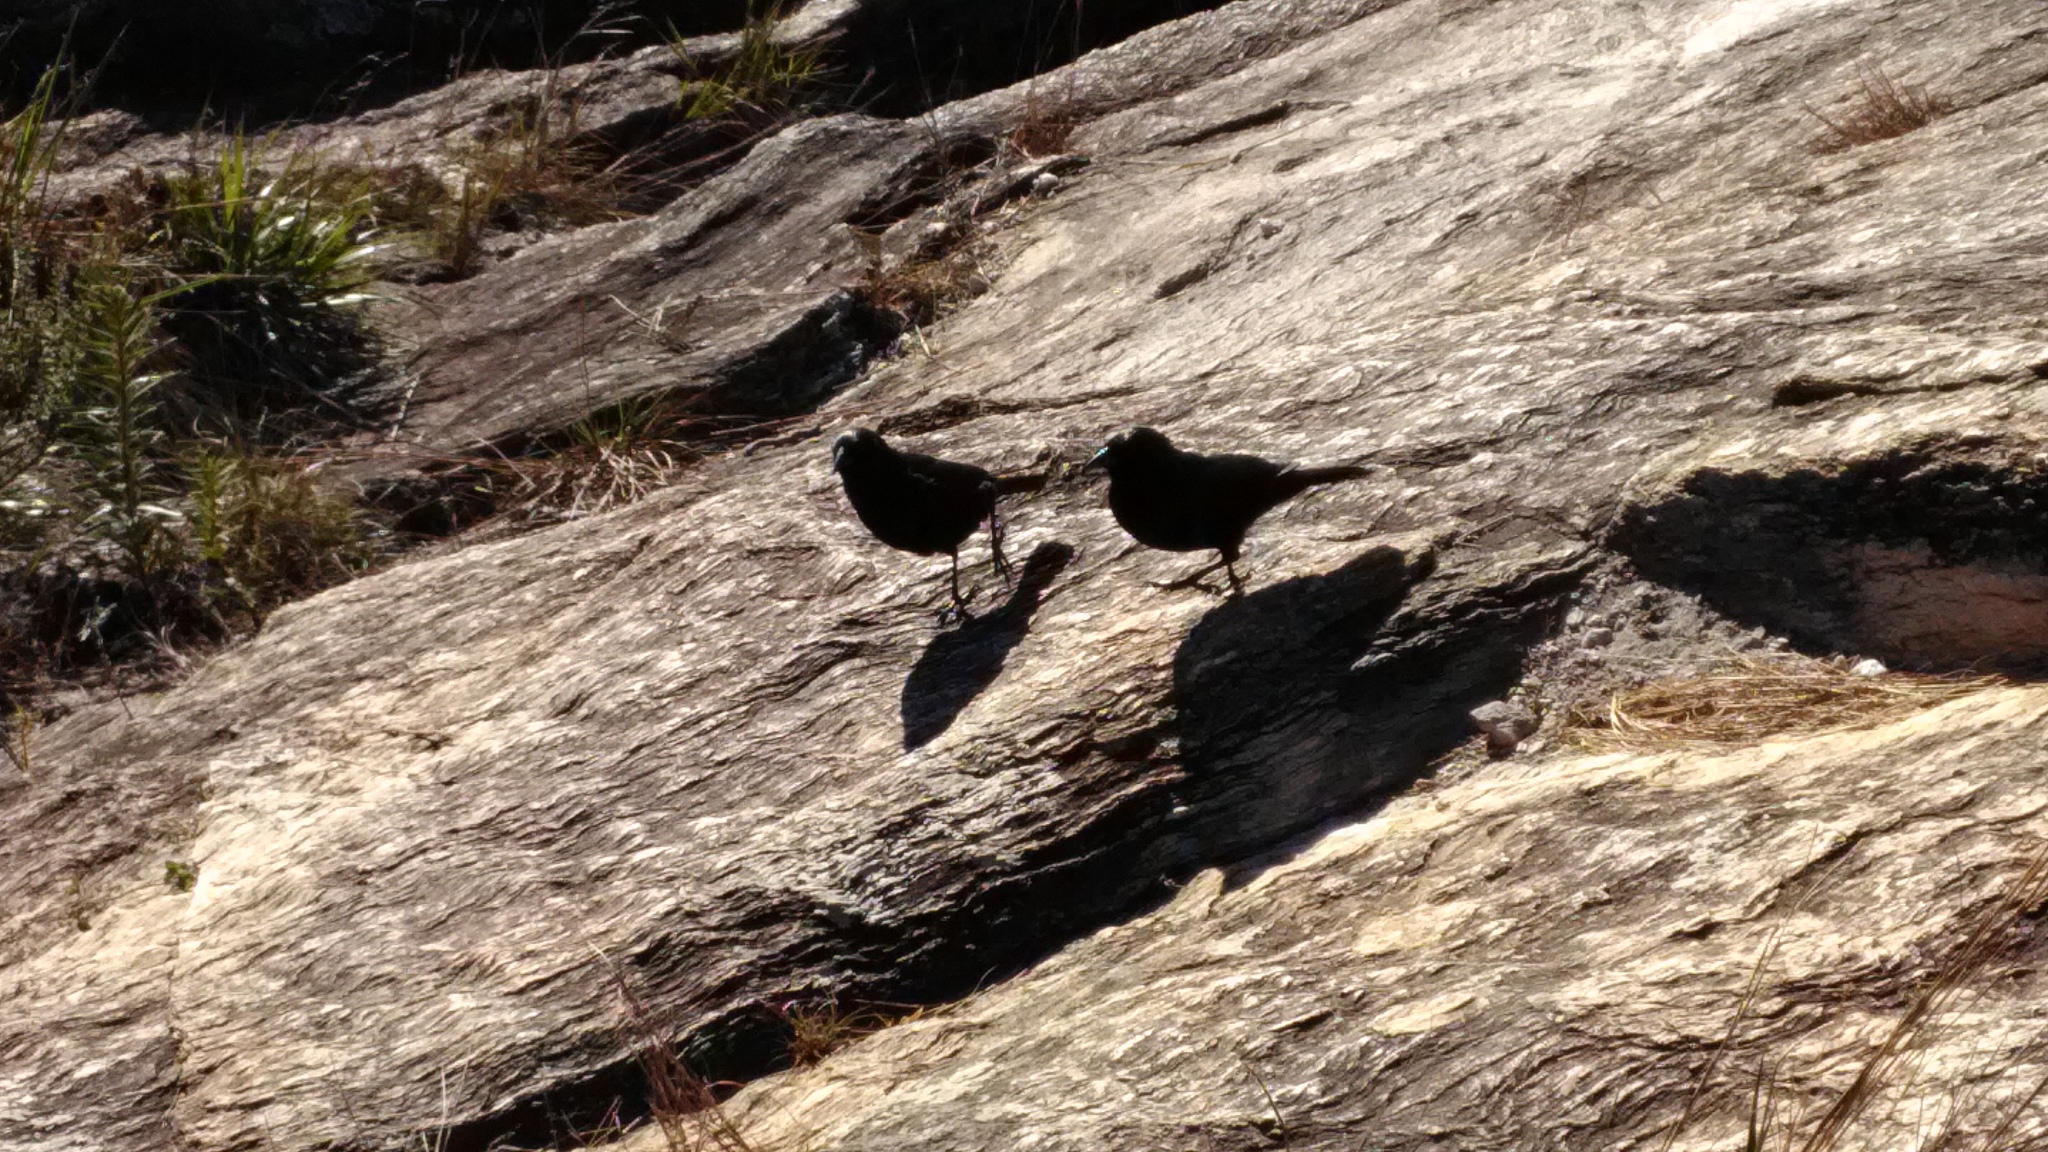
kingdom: Animalia
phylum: Chordata
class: Aves
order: Passeriformes
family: Icteridae
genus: Gnorimopsar
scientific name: Gnorimopsar chopi
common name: Chopi blackbird
